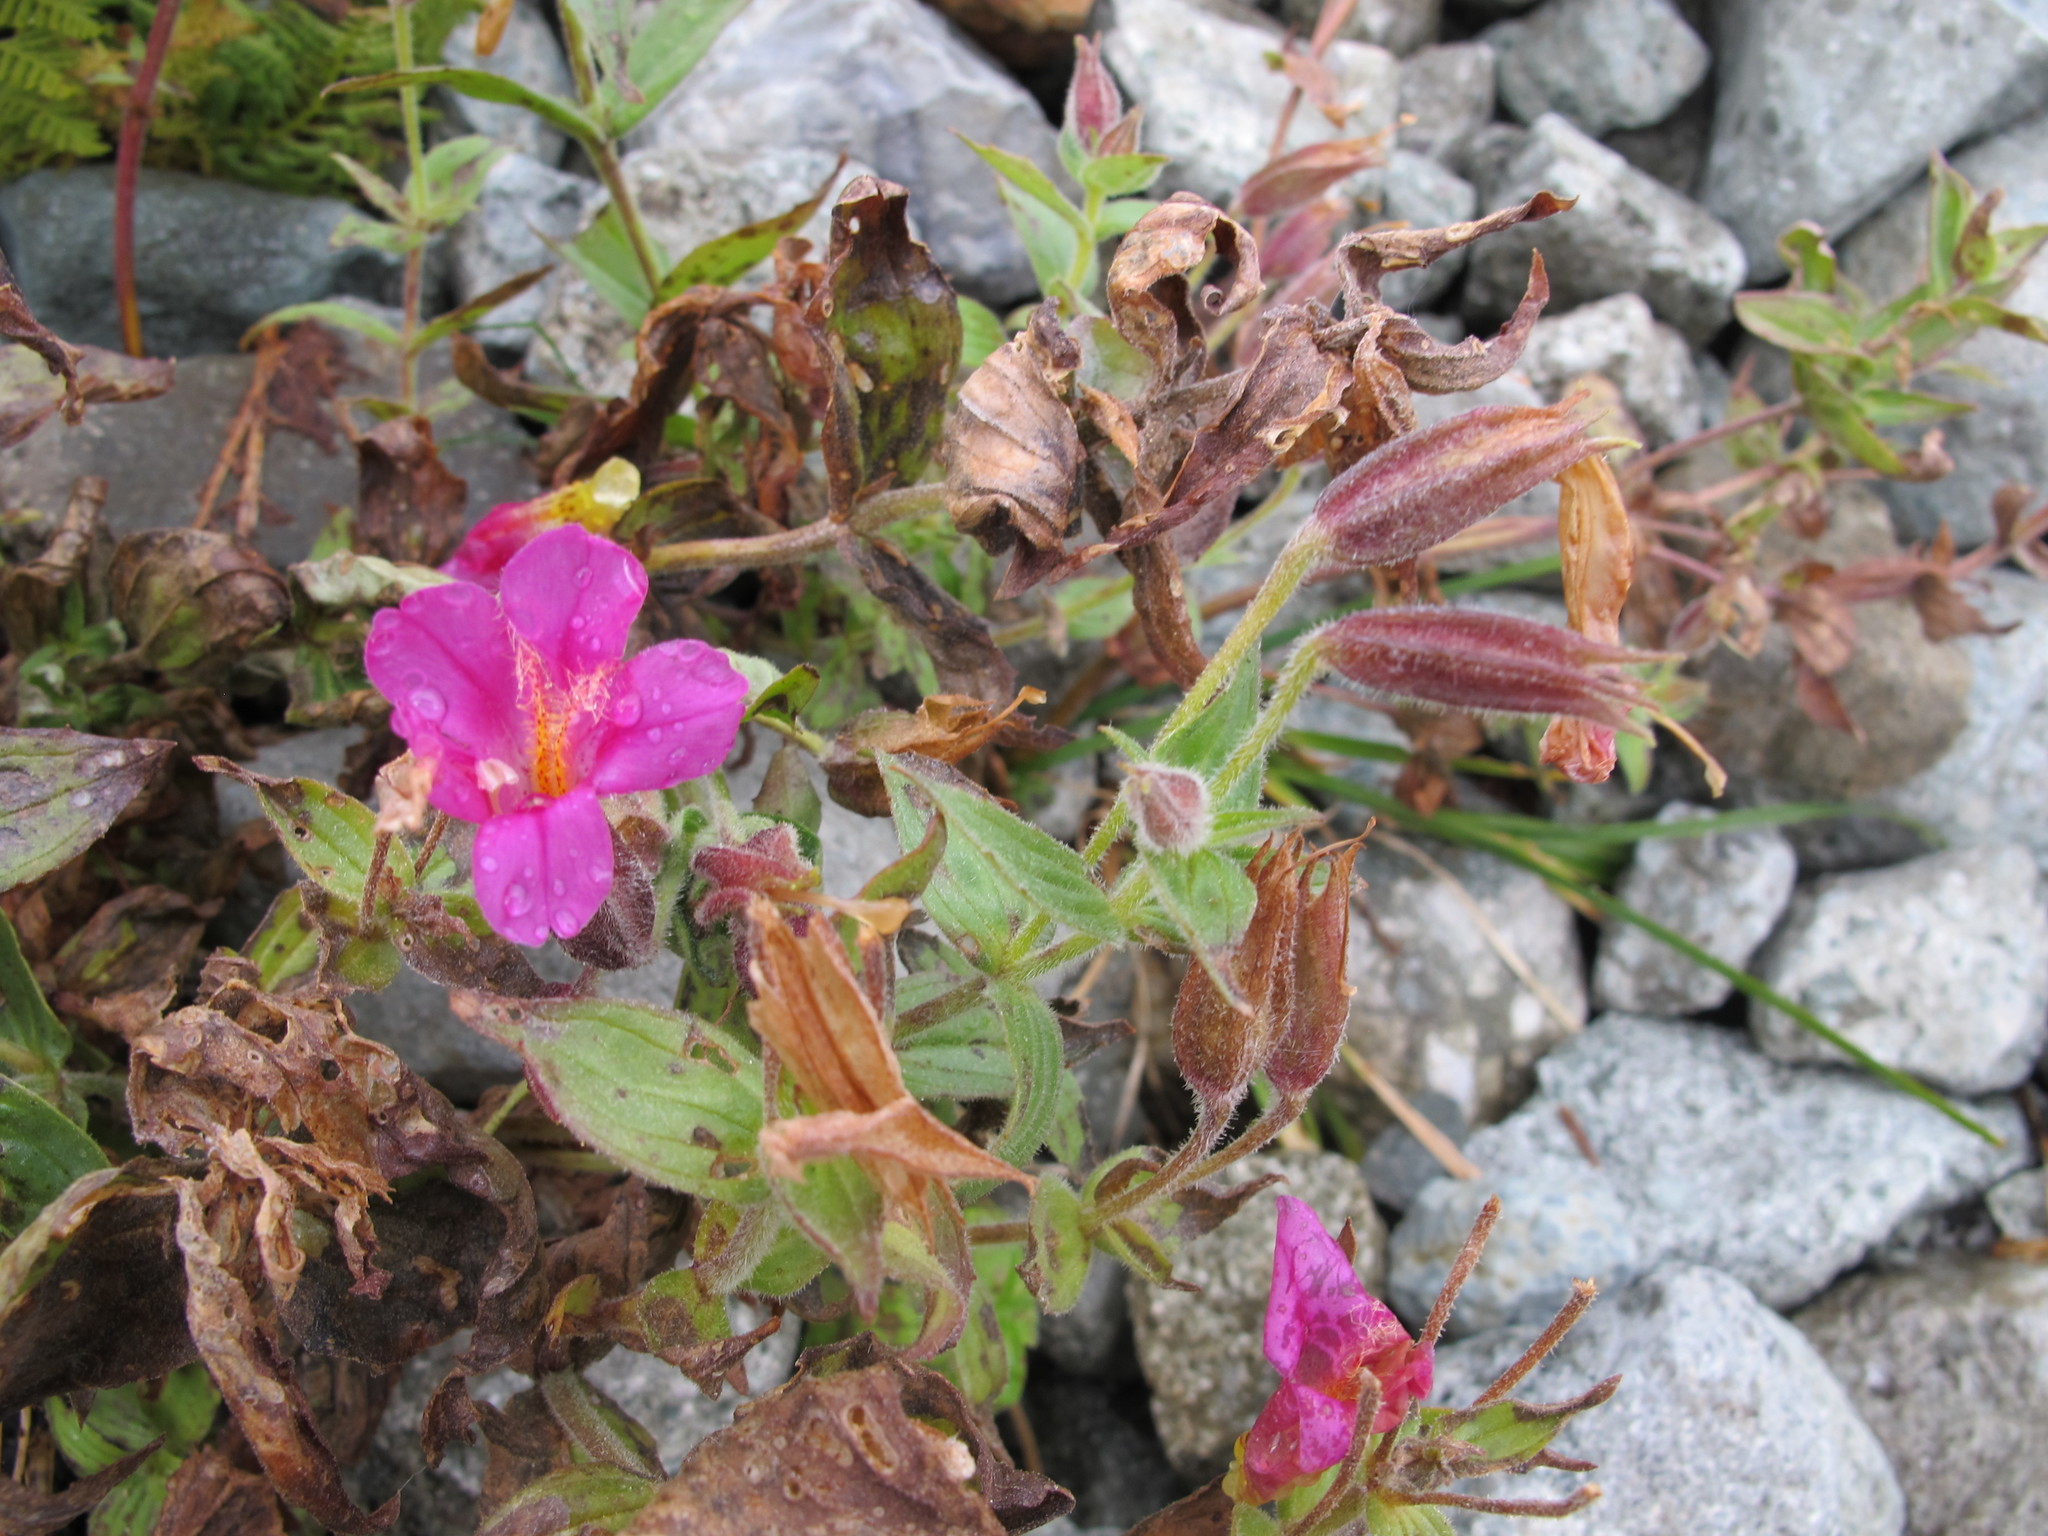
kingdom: Plantae
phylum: Tracheophyta
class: Magnoliopsida
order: Lamiales
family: Phrymaceae
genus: Erythranthe
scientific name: Erythranthe lewisii
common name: Lewis's monkey-flower
